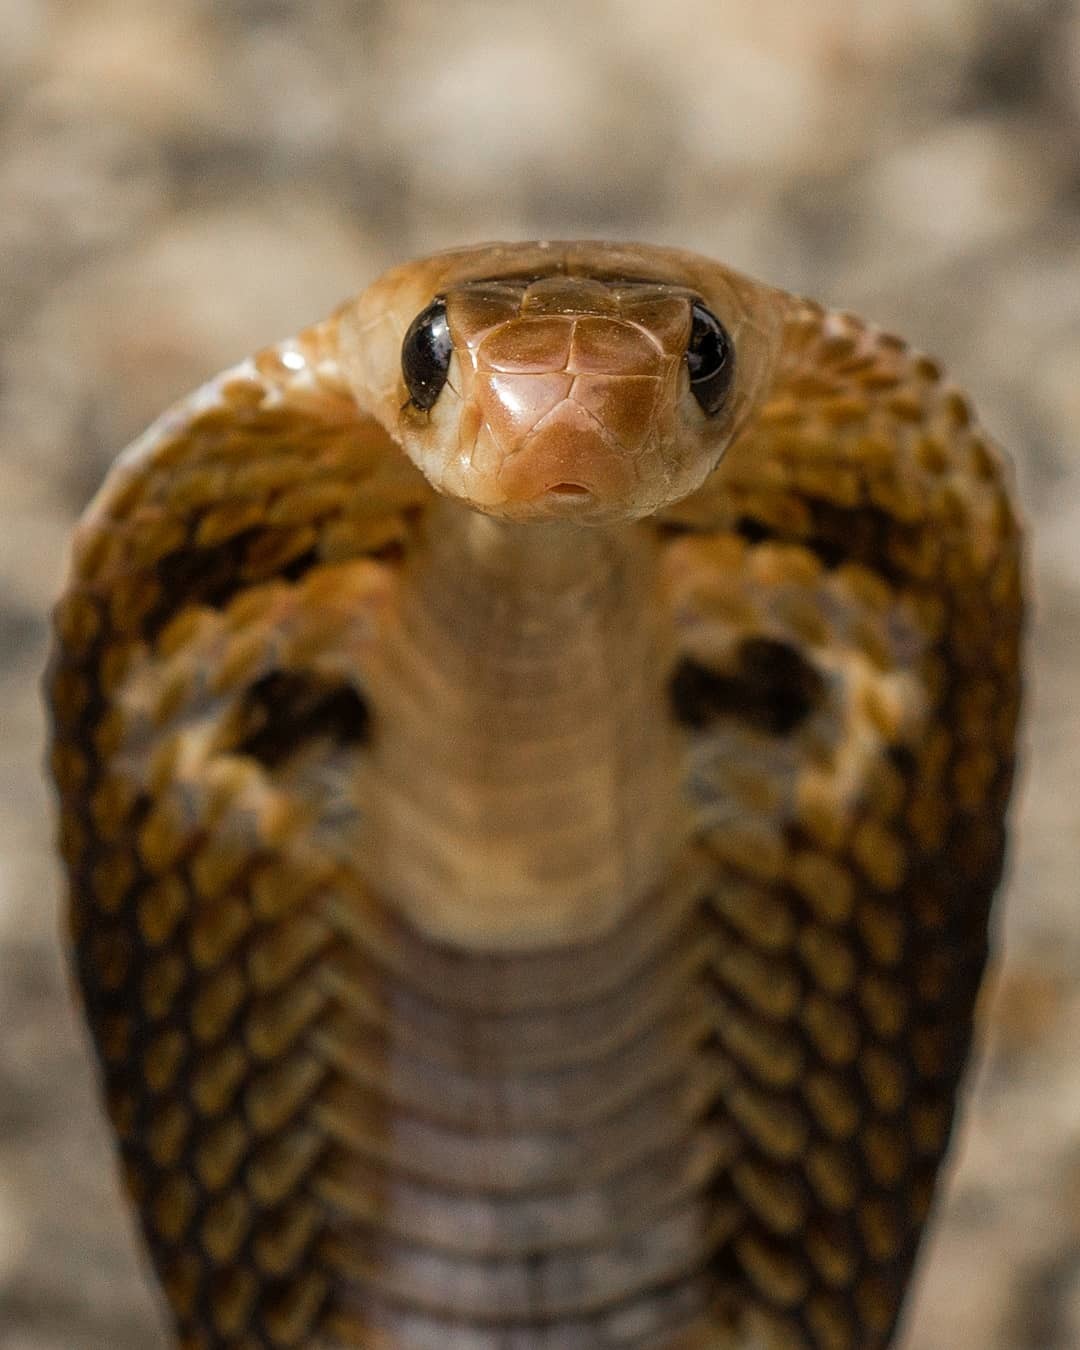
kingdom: Animalia
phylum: Chordata
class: Squamata
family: Elapidae
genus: Naja
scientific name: Naja naja
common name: Indian cobra
